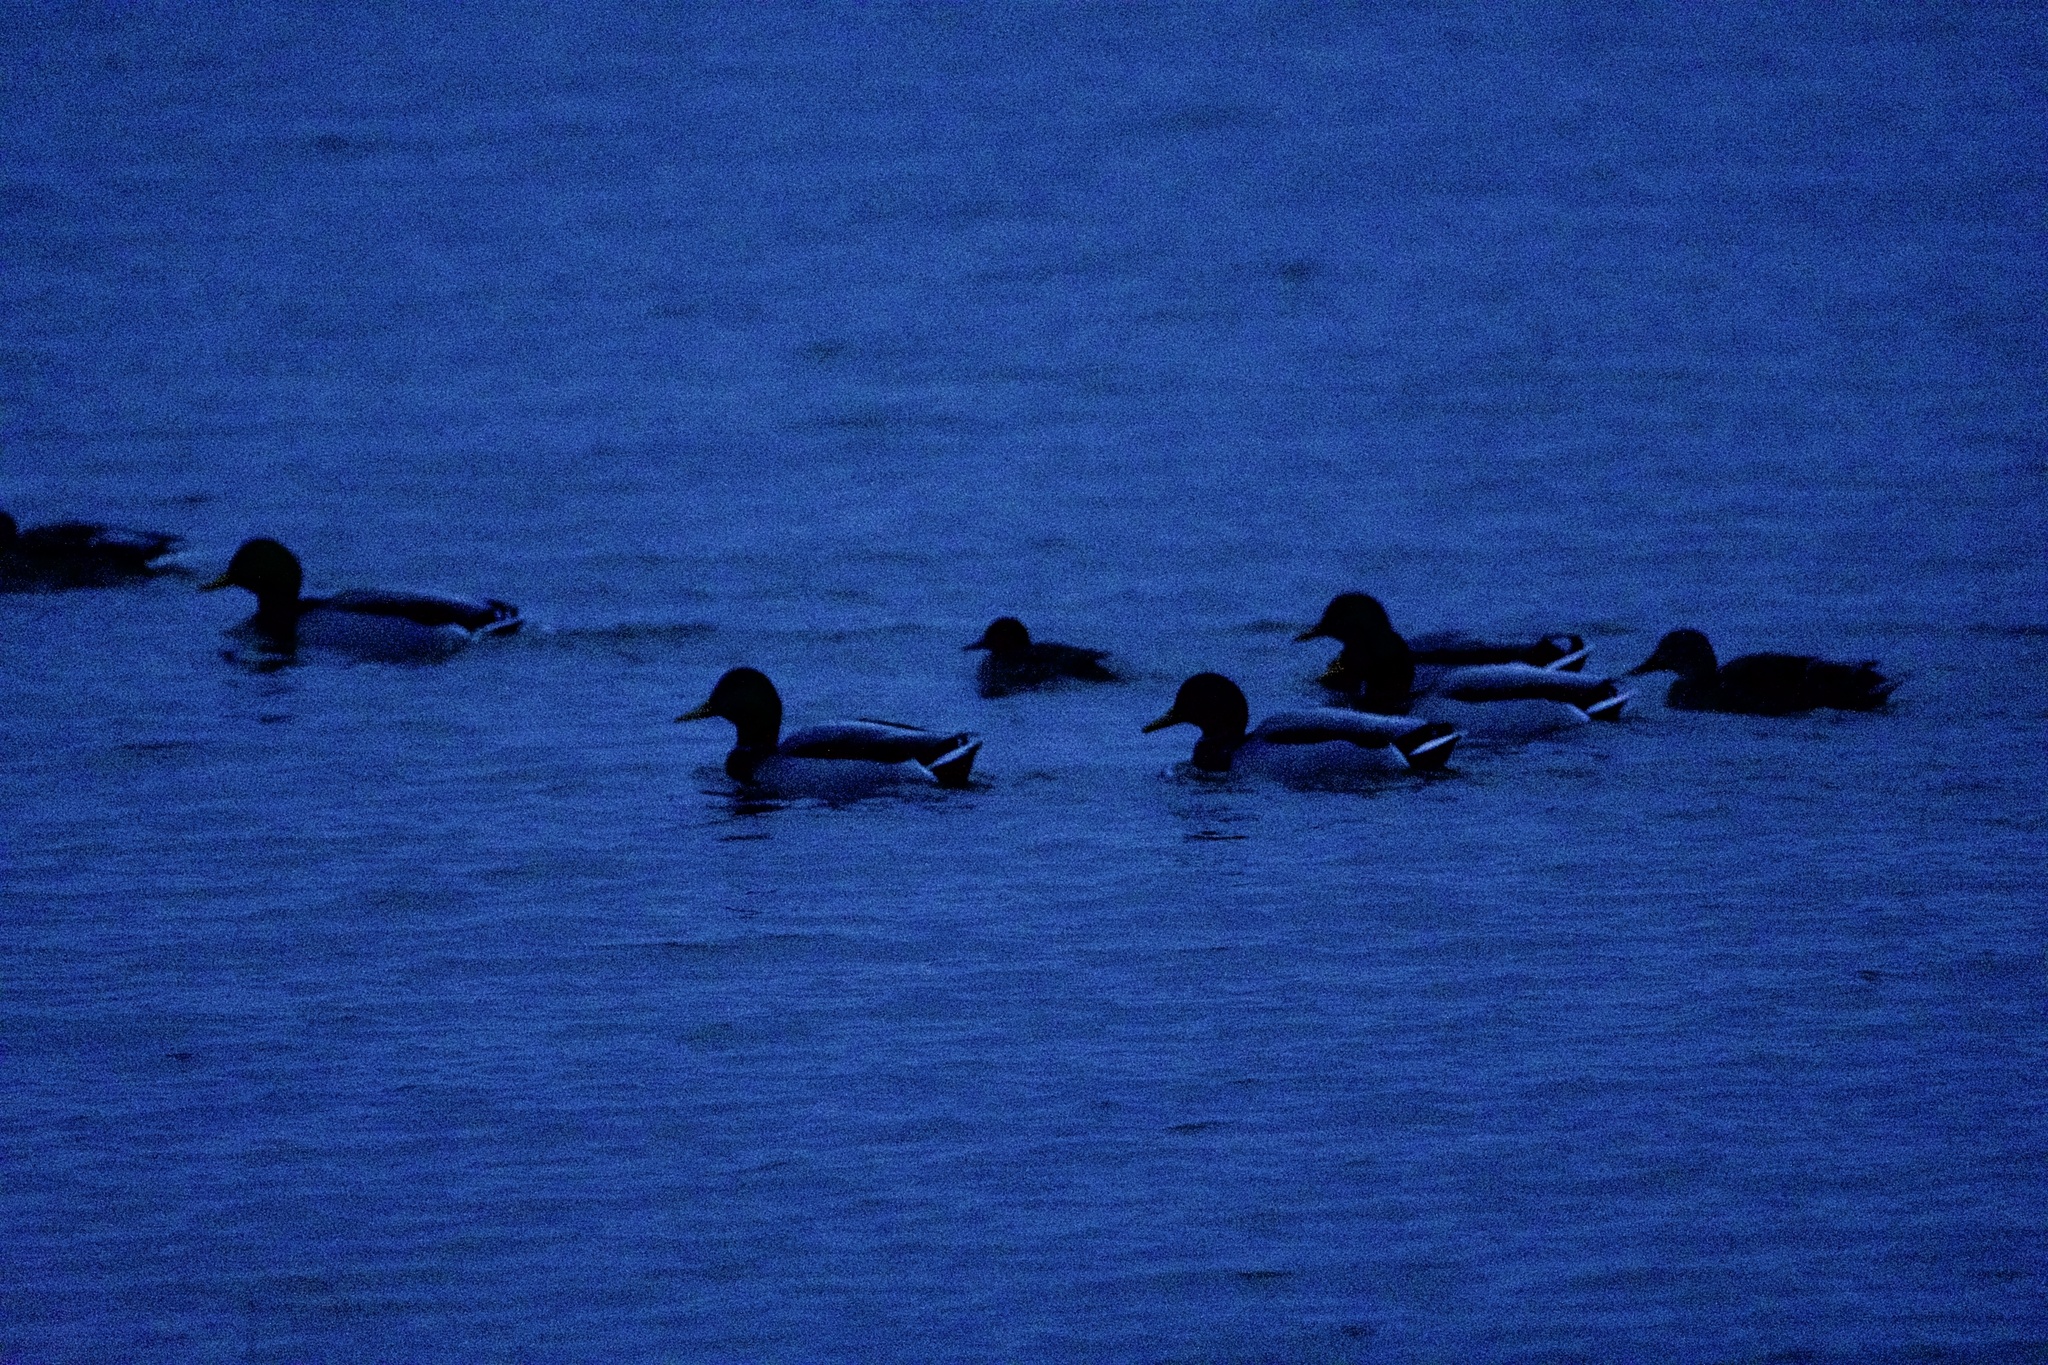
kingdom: Animalia
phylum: Chordata
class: Aves
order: Anseriformes
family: Anatidae
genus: Anas
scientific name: Anas platyrhynchos
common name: Mallard
